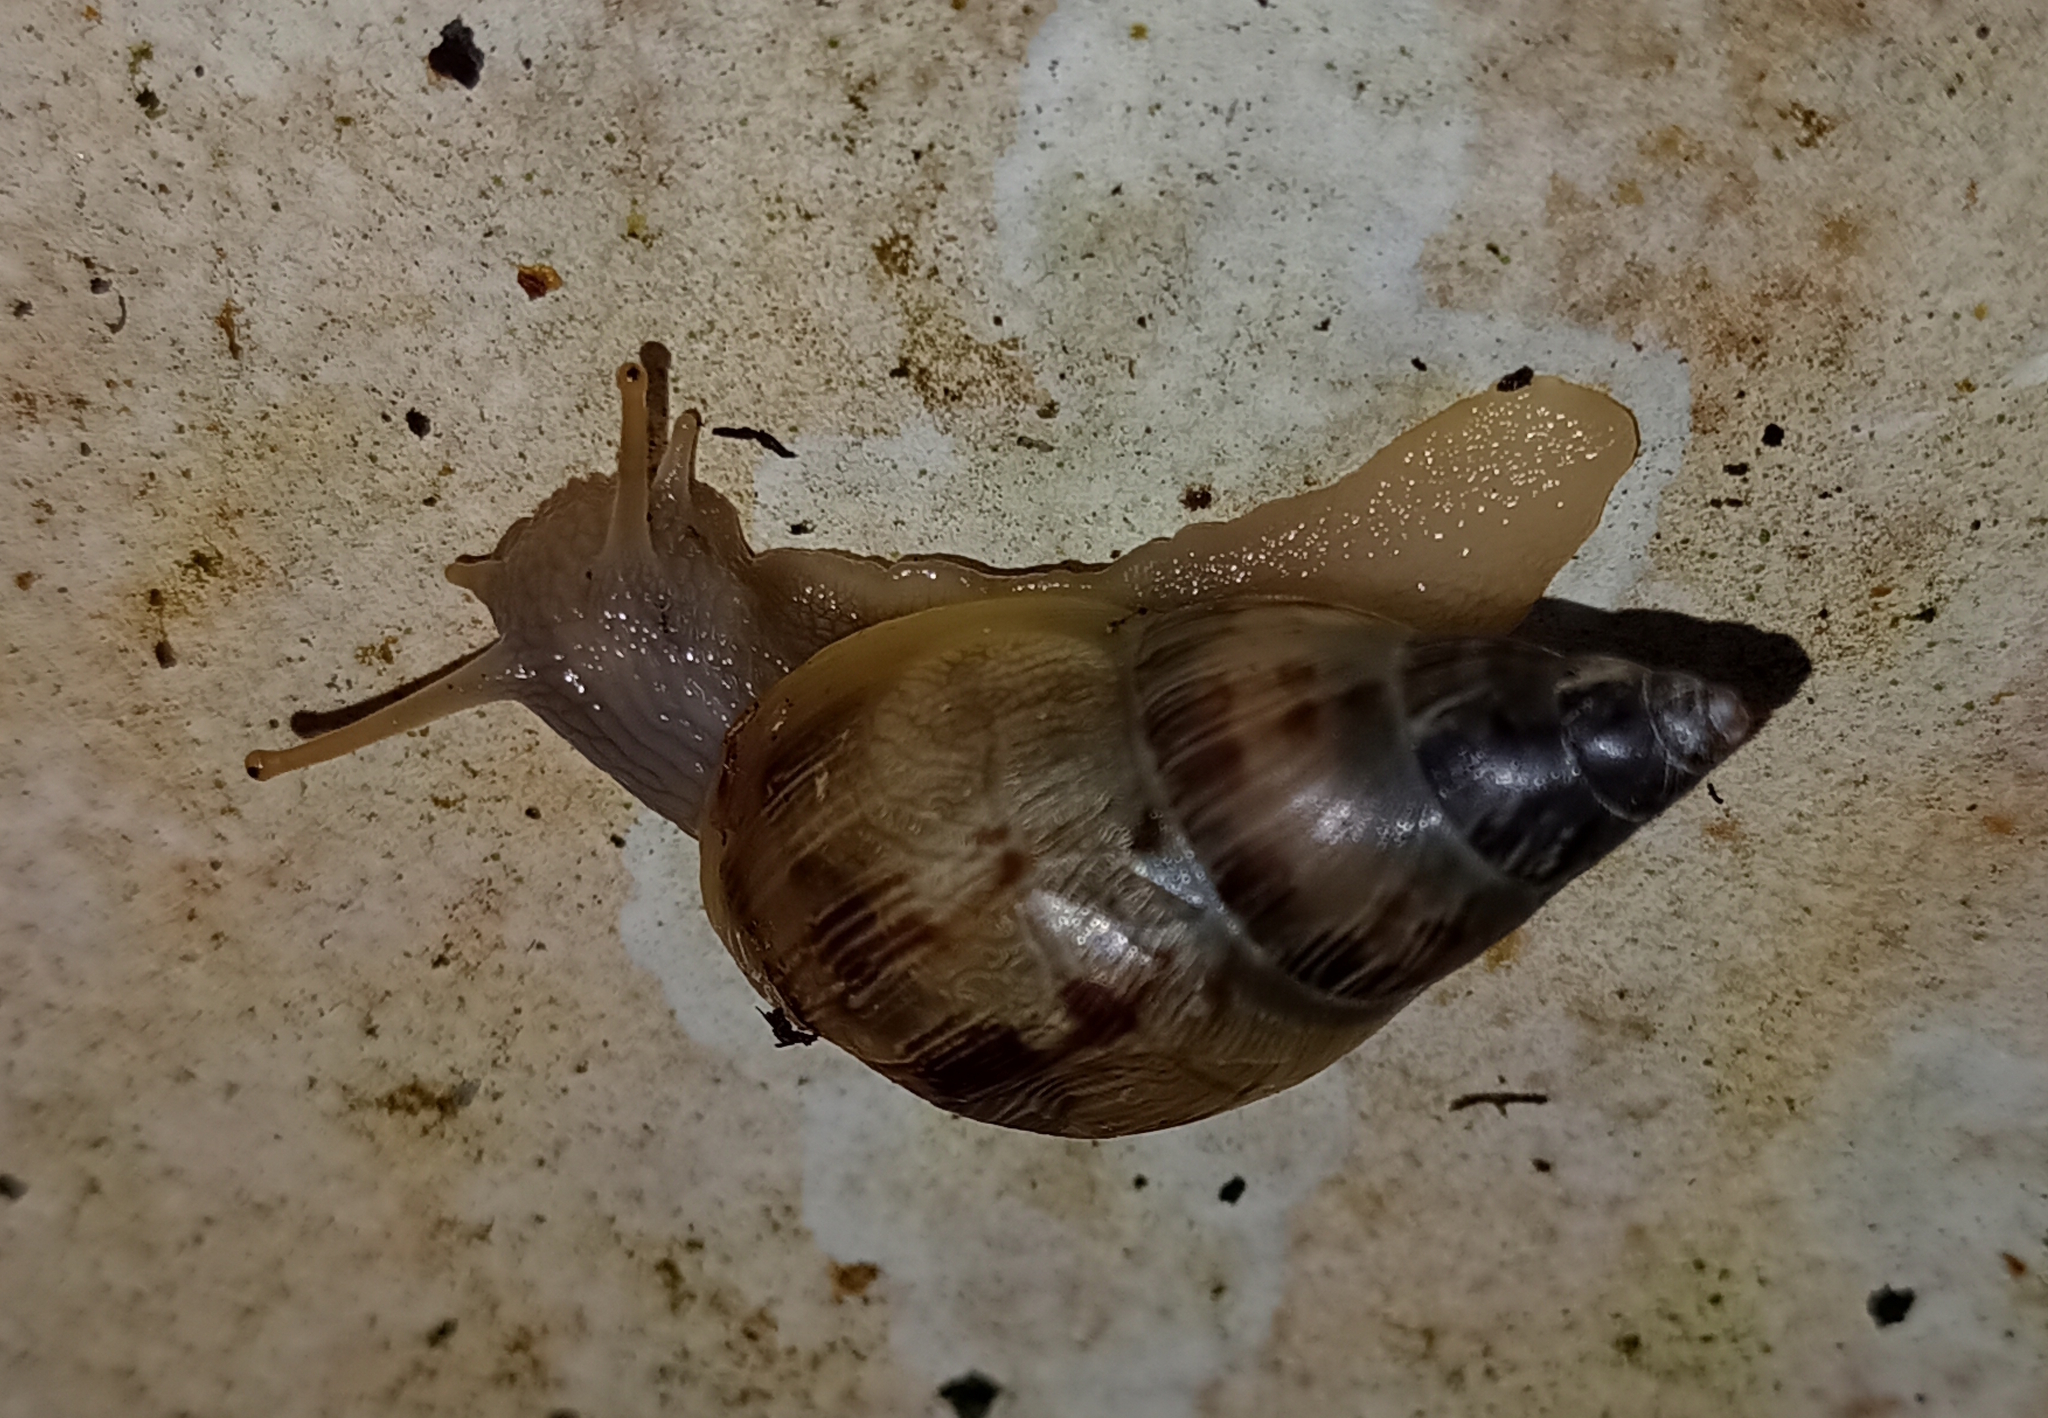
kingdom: Animalia
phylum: Mollusca
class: Gastropoda
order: Stylommatophora
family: Bulimulidae
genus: Drymaeus
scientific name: Drymaeus papyraceus
